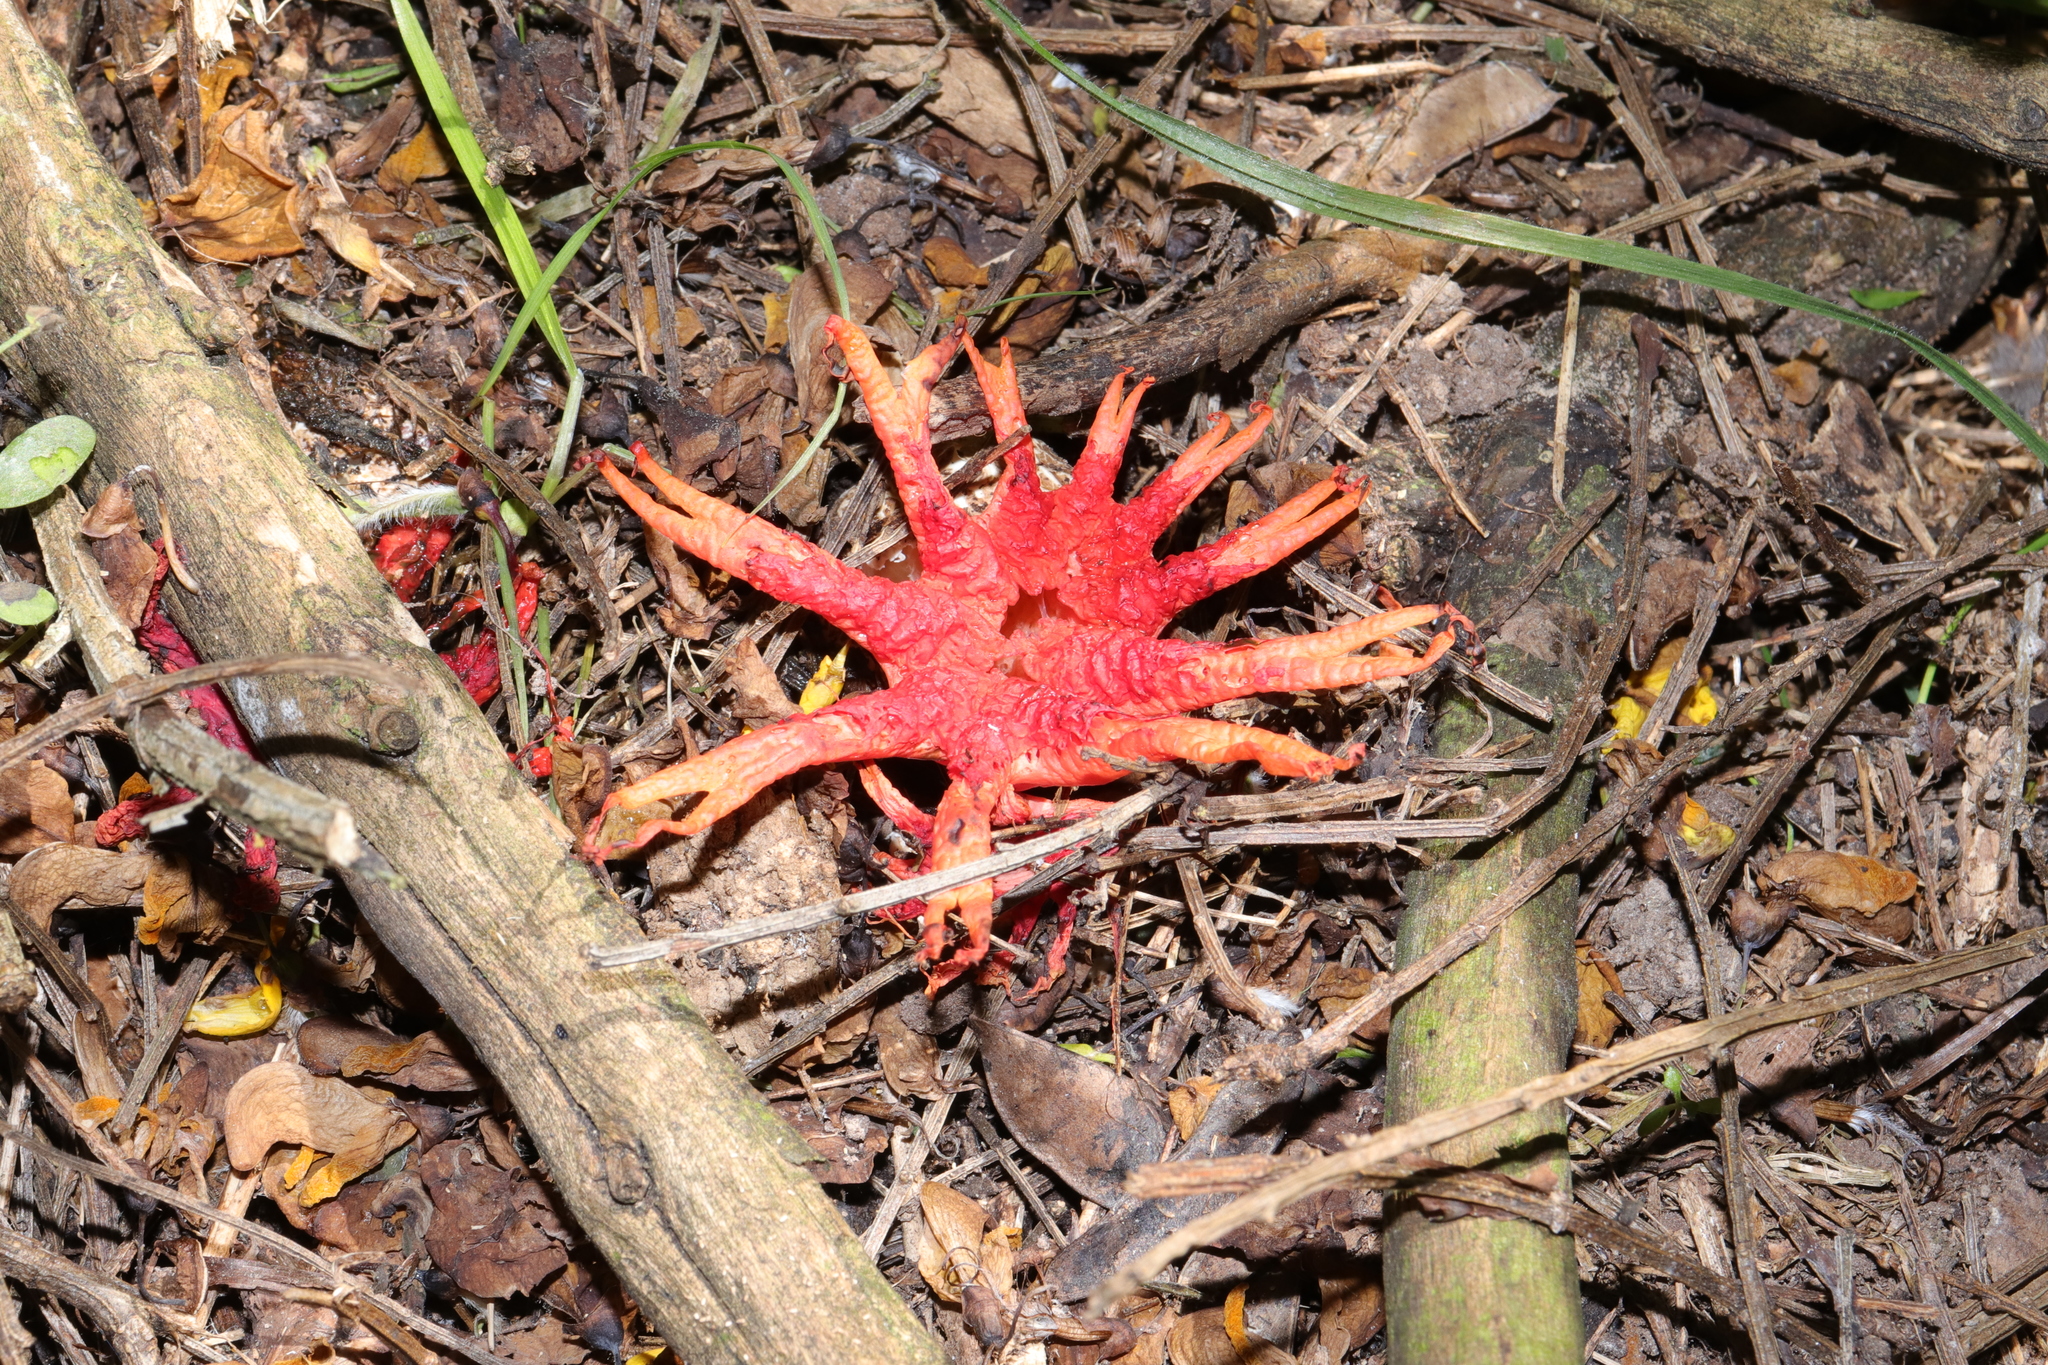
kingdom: Fungi
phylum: Basidiomycota
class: Agaricomycetes
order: Phallales
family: Phallaceae
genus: Aseroe
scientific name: Aseroe rubra
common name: Starfish fungus
